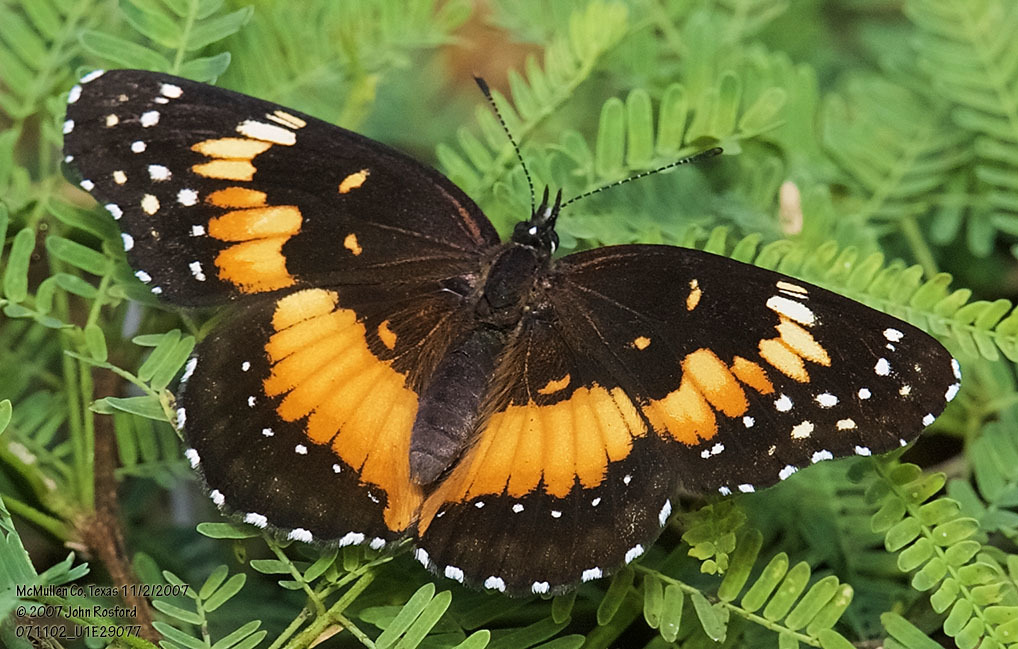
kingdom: Animalia
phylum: Arthropoda
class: Insecta
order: Lepidoptera
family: Nymphalidae
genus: Chlosyne
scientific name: Chlosyne lacinia
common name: Bordered patch
